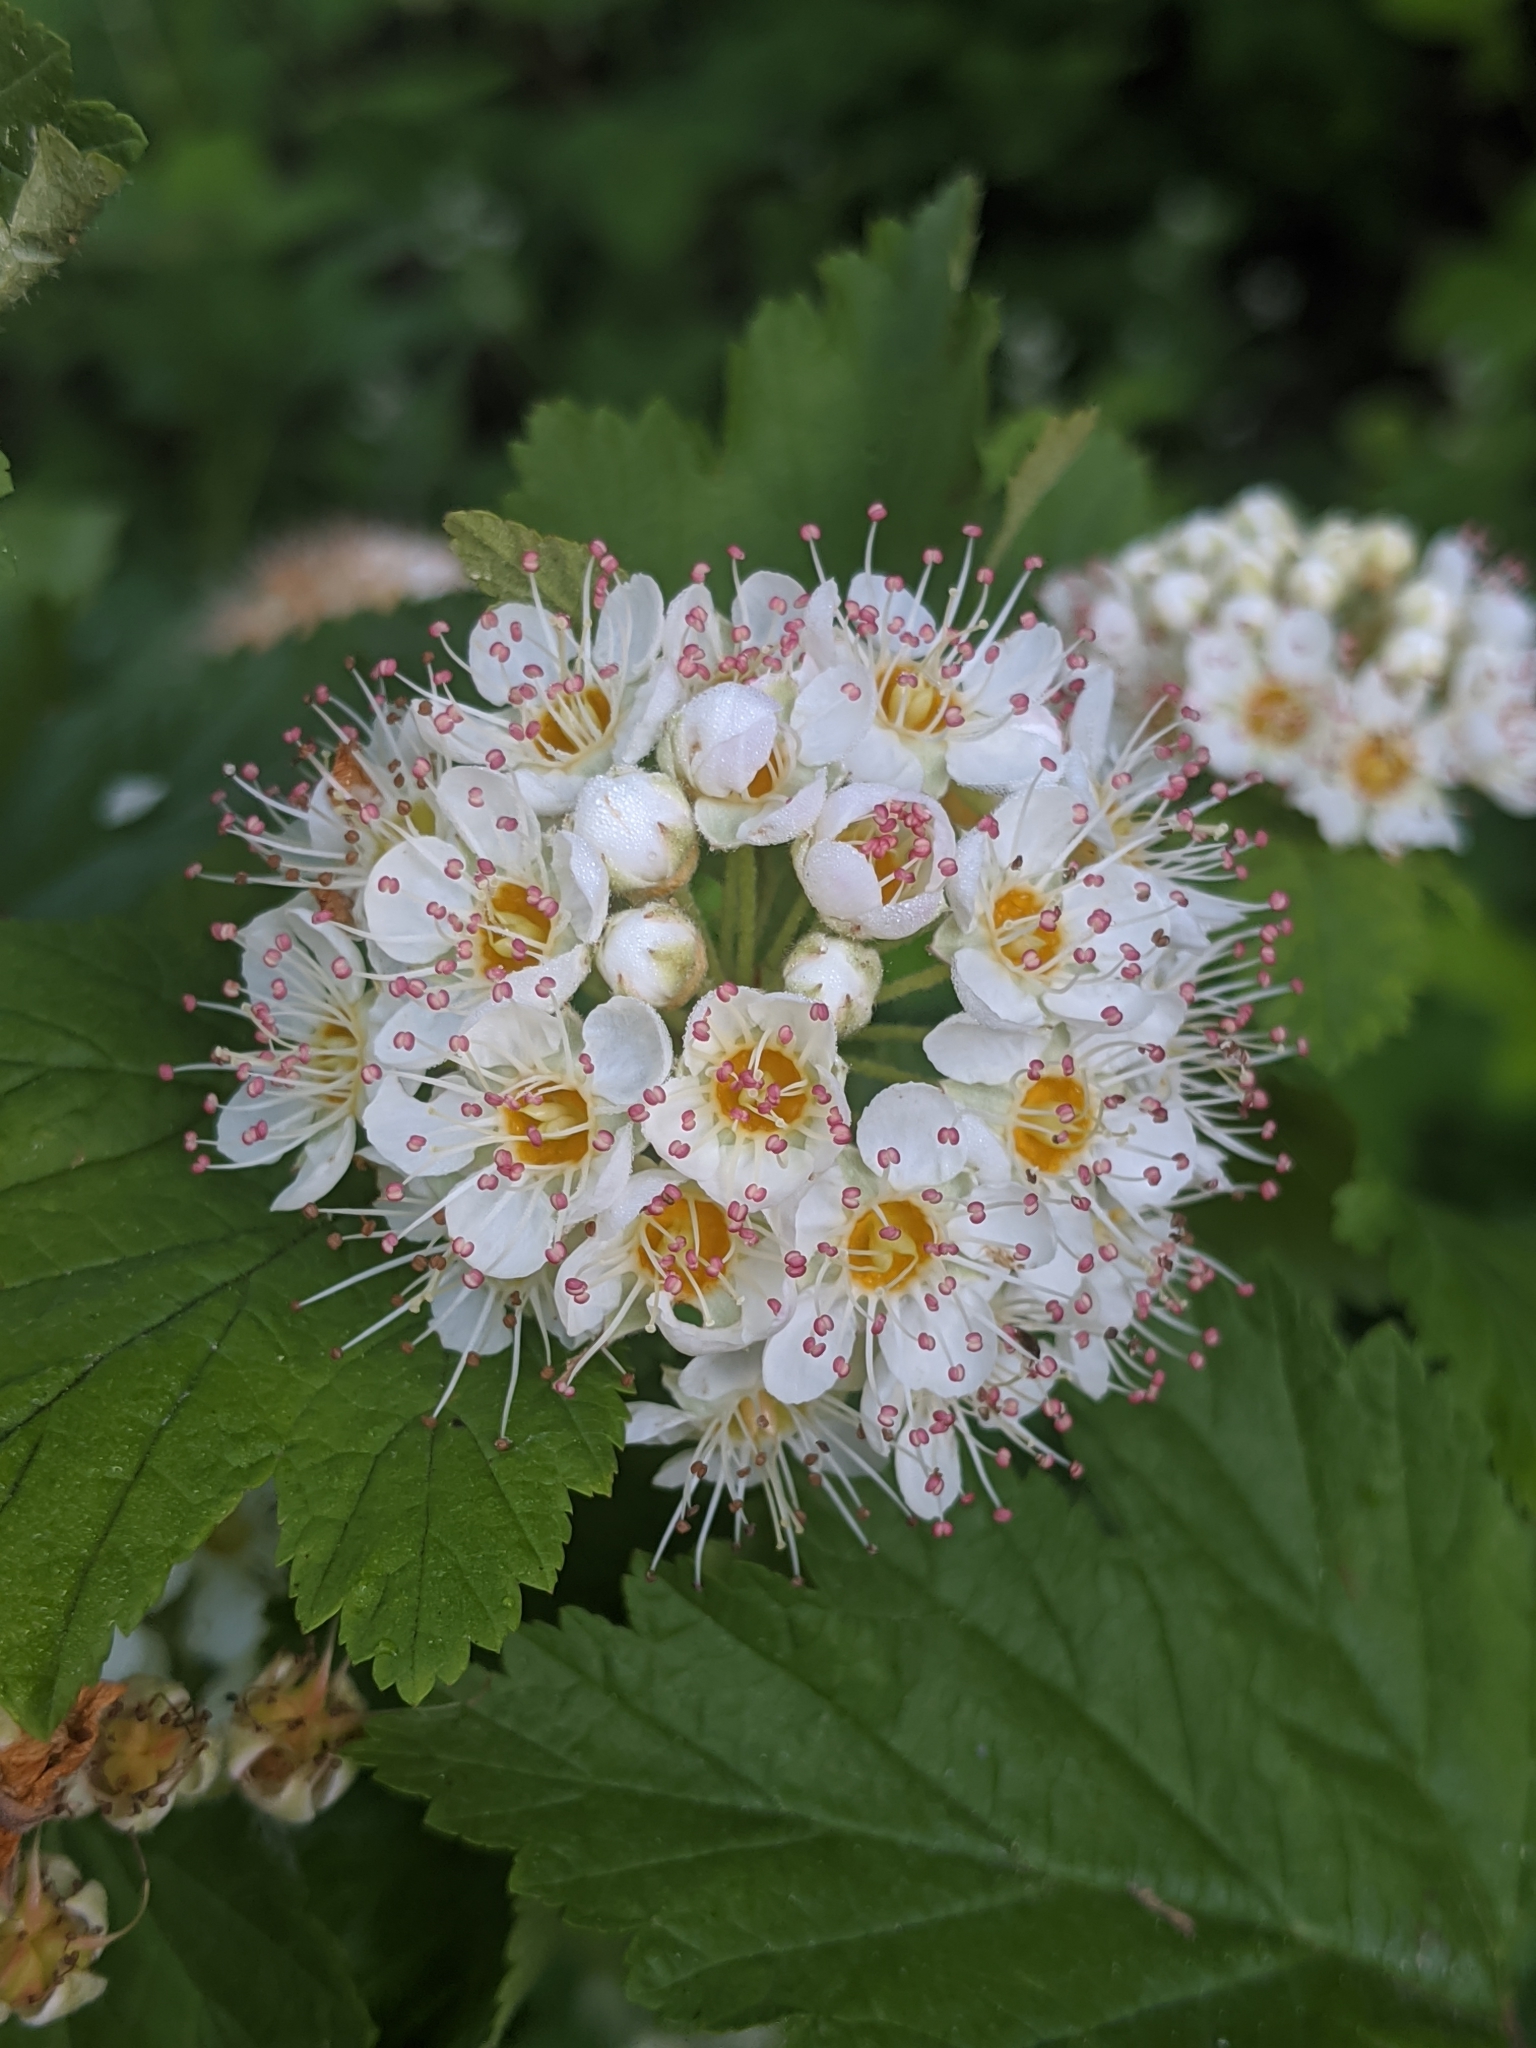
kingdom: Plantae
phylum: Tracheophyta
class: Magnoliopsida
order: Rosales
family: Rosaceae
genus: Physocarpus
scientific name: Physocarpus capitatus
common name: Pacific ninebark
